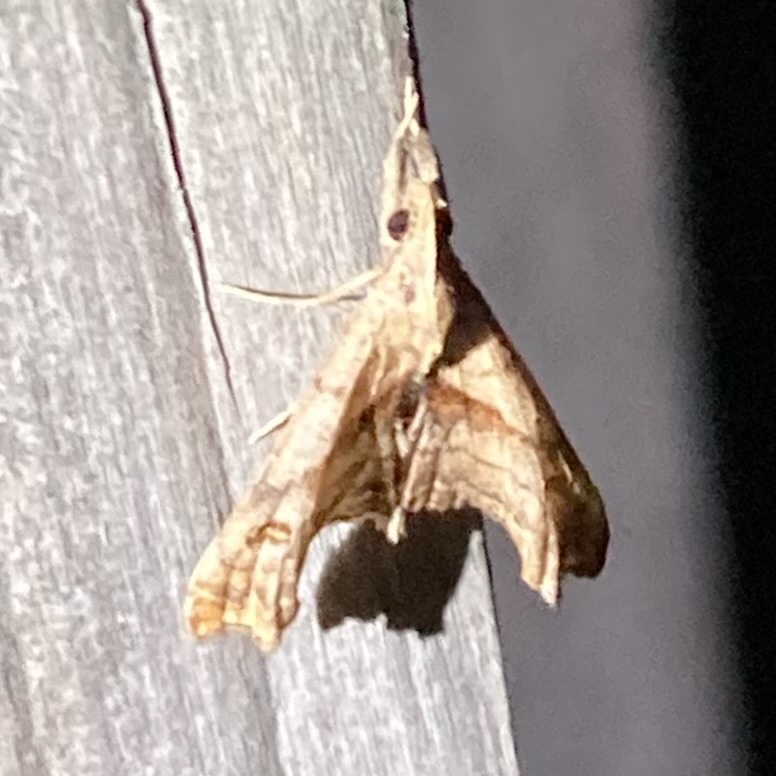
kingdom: Animalia
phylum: Arthropoda
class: Insecta
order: Lepidoptera
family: Erebidae
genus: Palthis
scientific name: Palthis angulalis
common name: Dark-spotted palthis moth
